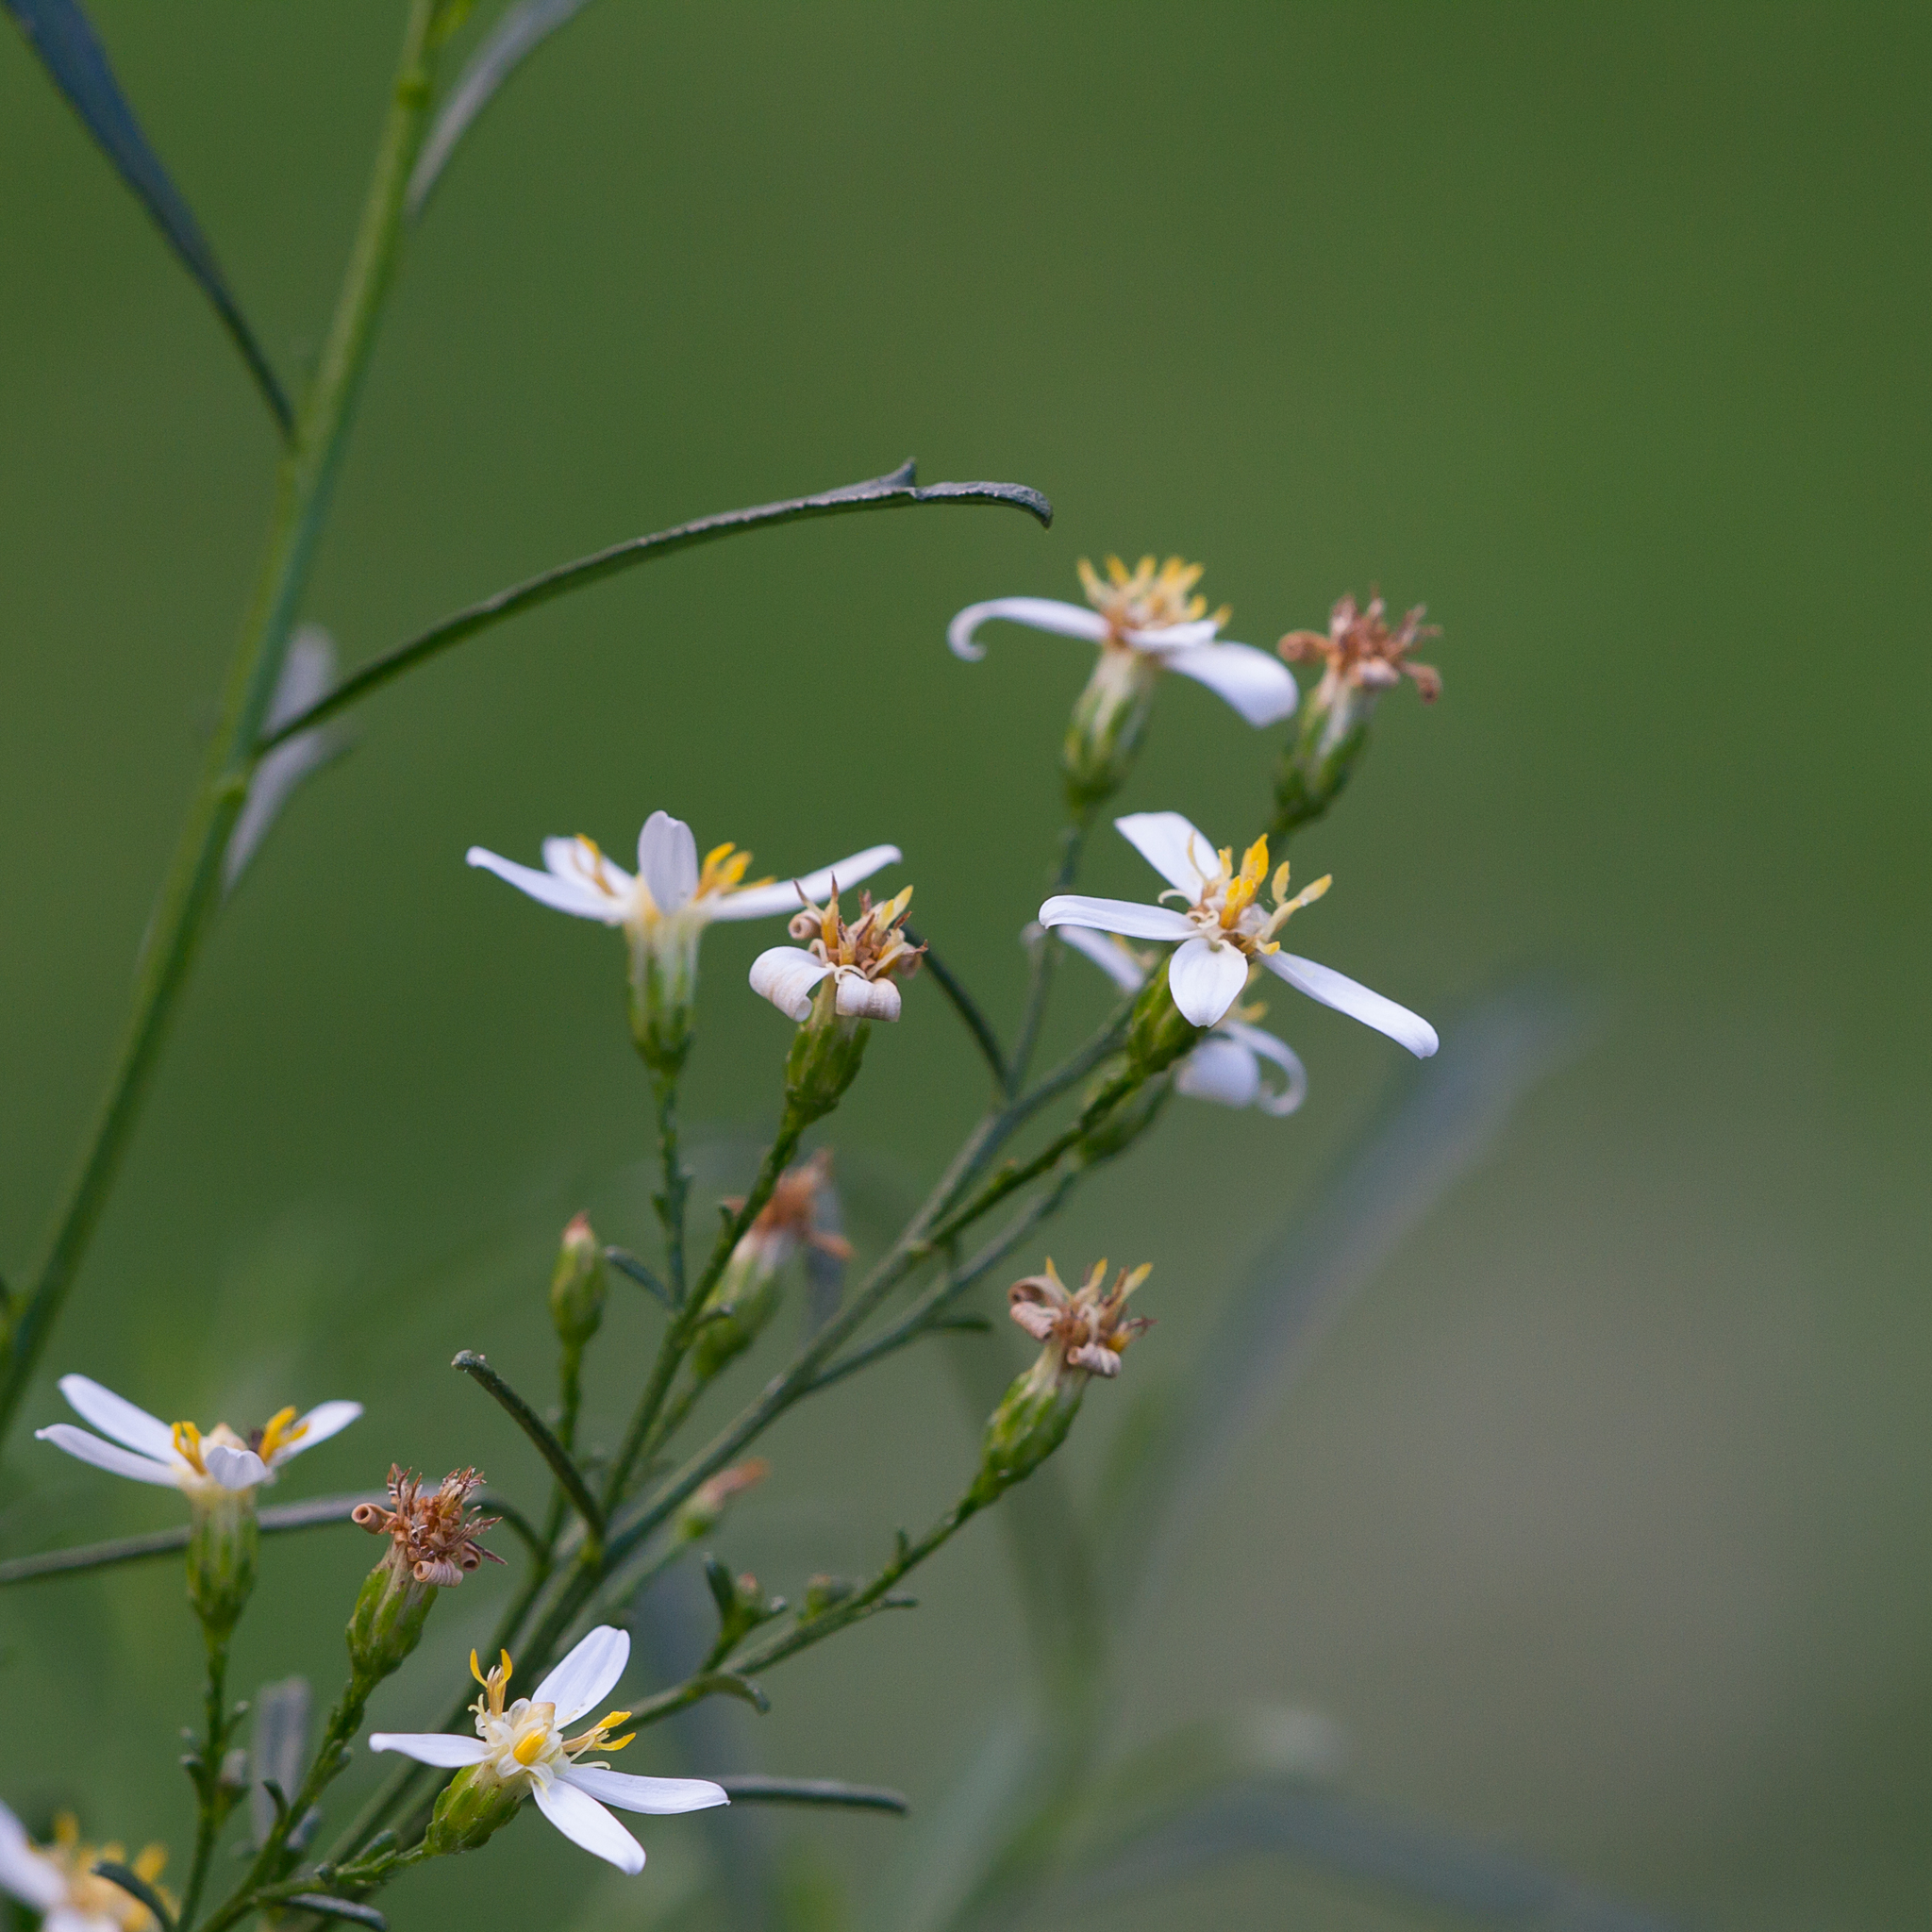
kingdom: Plantae
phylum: Tracheophyta
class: Magnoliopsida
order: Asterales
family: Asteraceae
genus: Olearia
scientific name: Olearia decurrens
